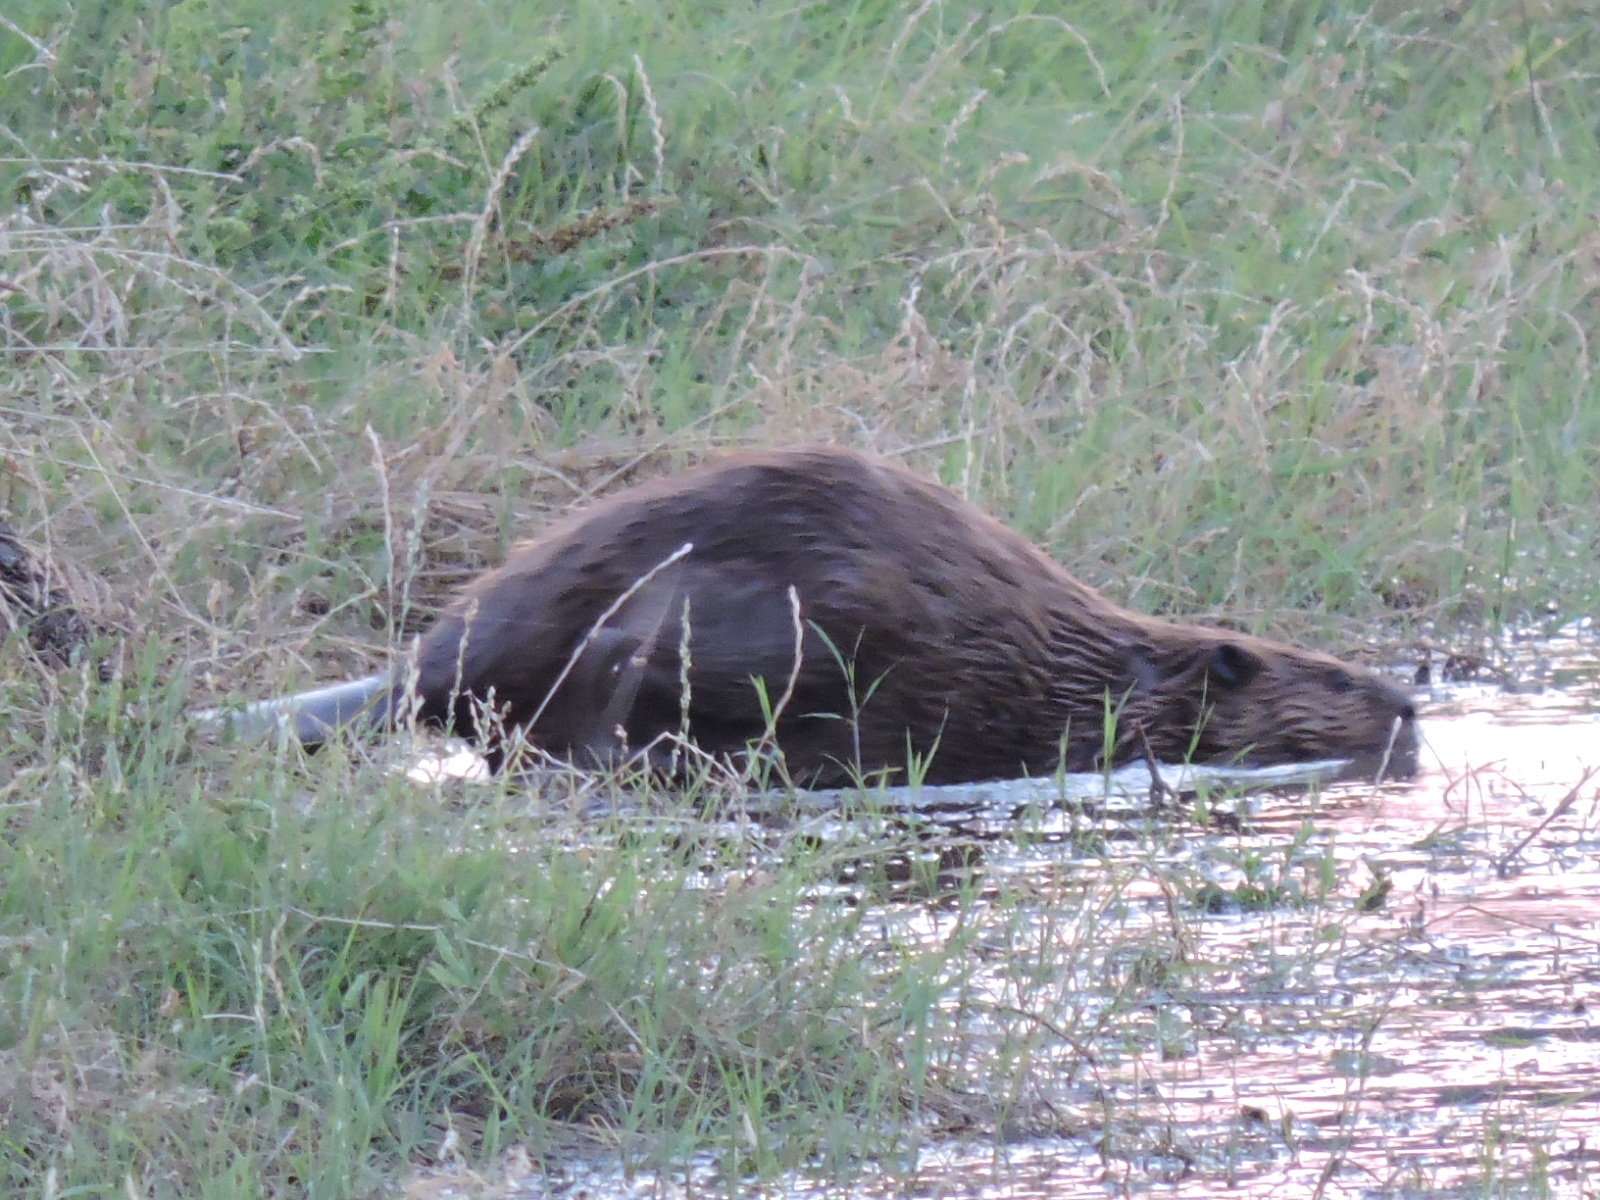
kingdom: Animalia
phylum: Chordata
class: Mammalia
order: Rodentia
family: Castoridae
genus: Castor
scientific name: Castor canadensis
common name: American beaver
